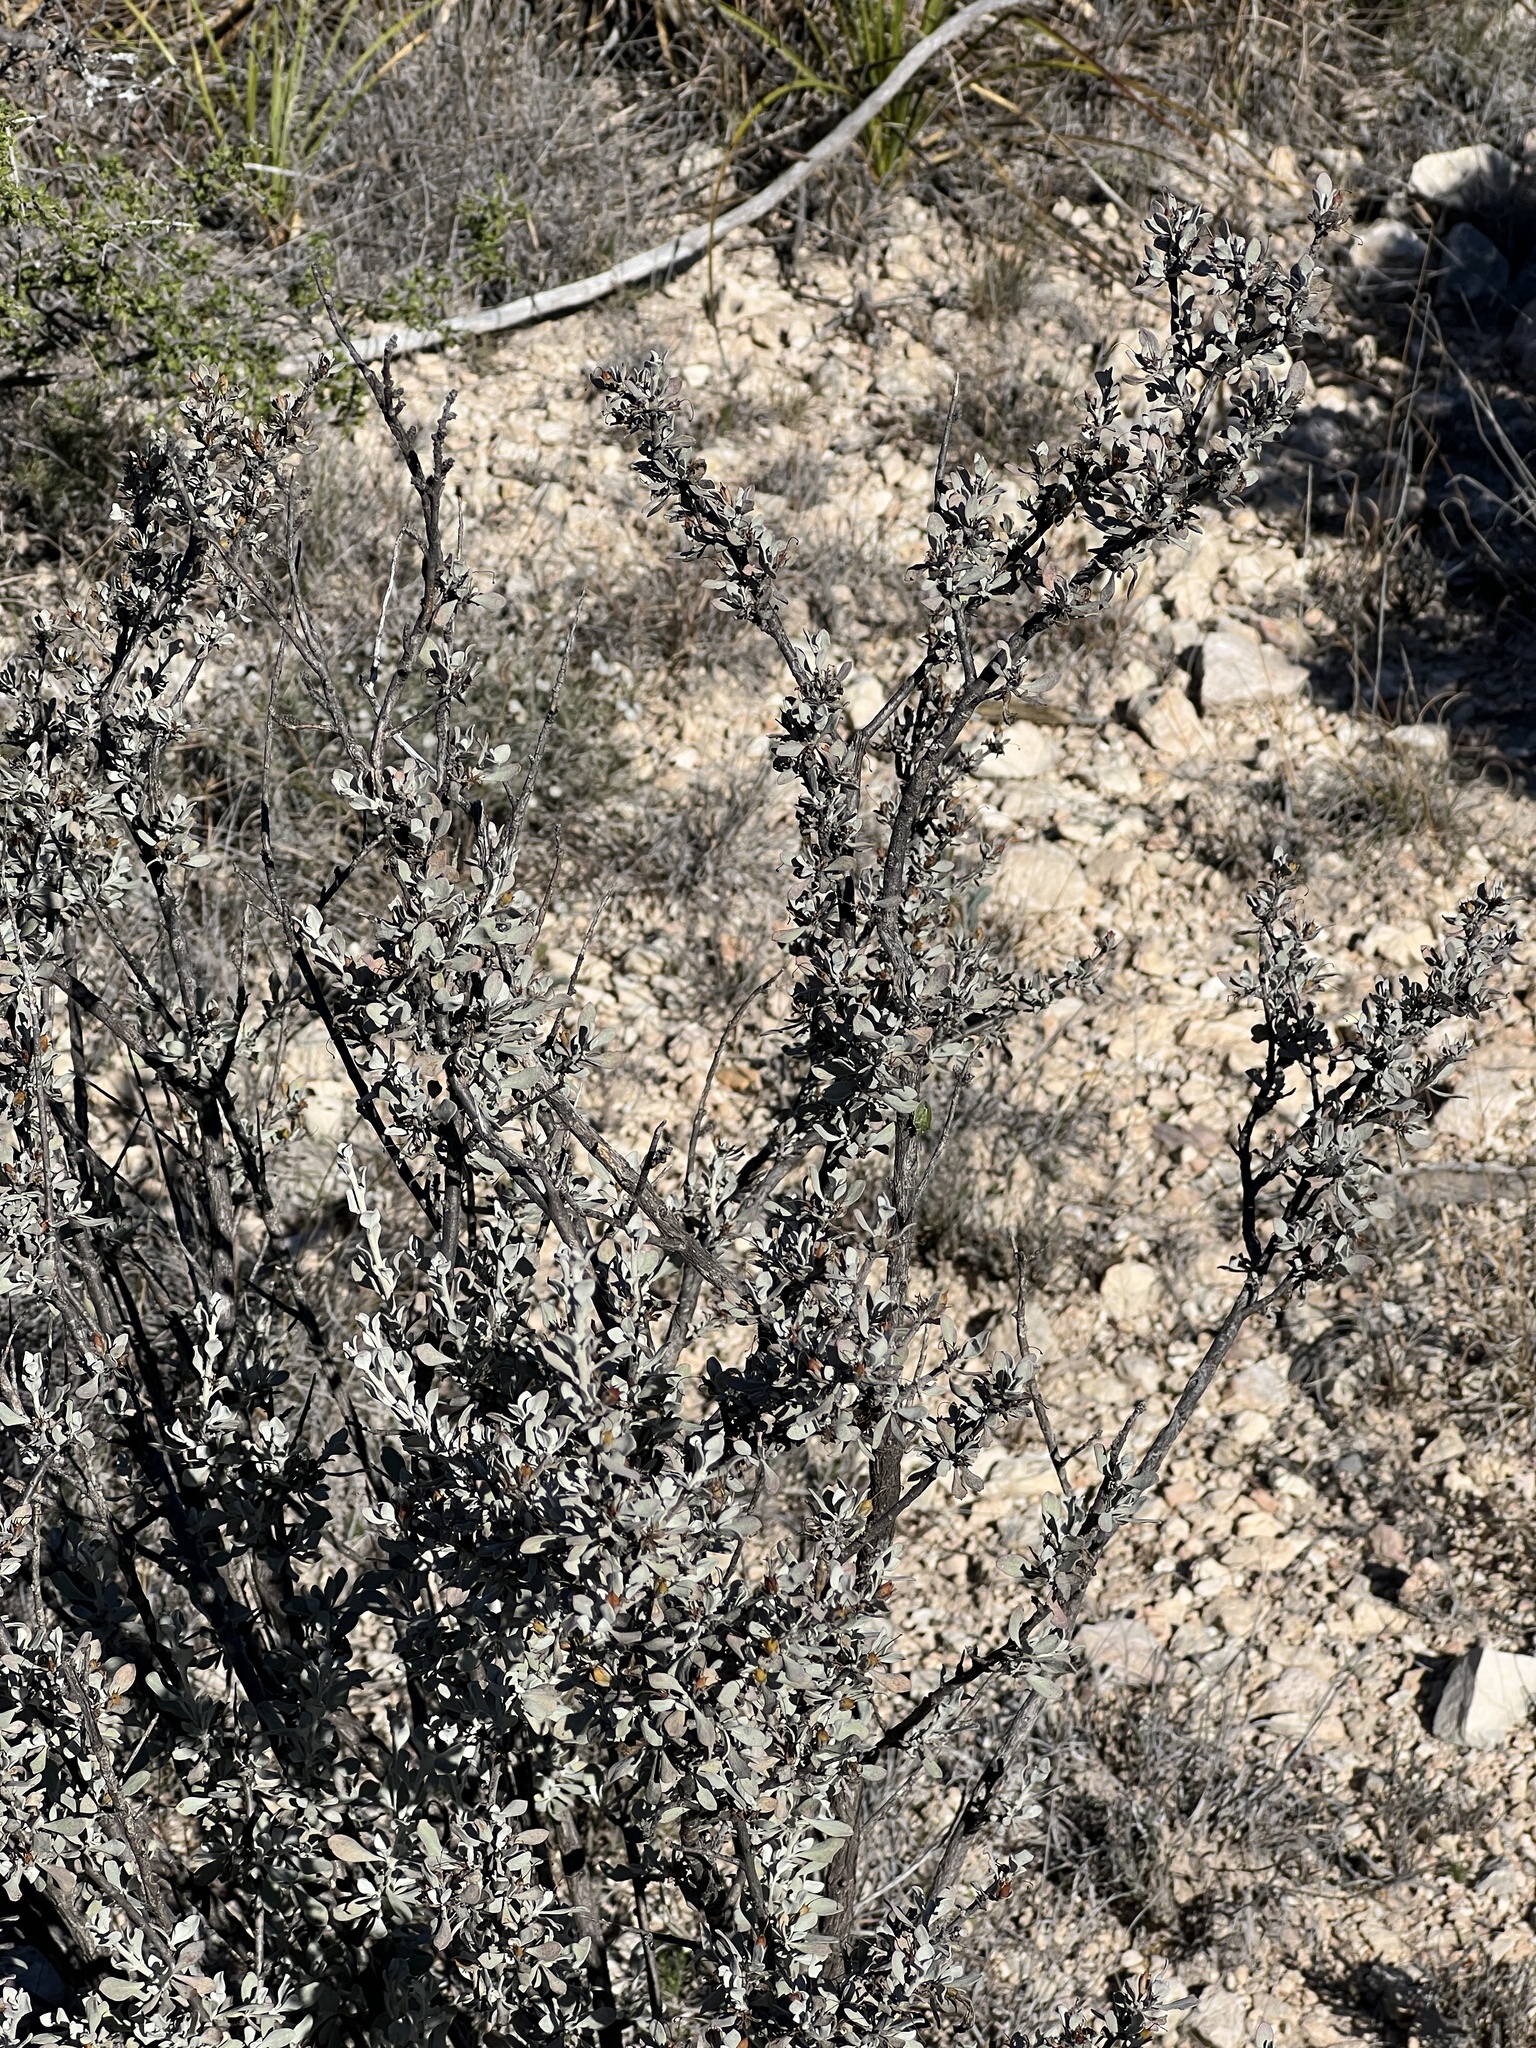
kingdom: Plantae
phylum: Tracheophyta
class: Magnoliopsida
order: Lamiales
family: Scrophulariaceae
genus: Leucophyllum
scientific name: Leucophyllum minus
